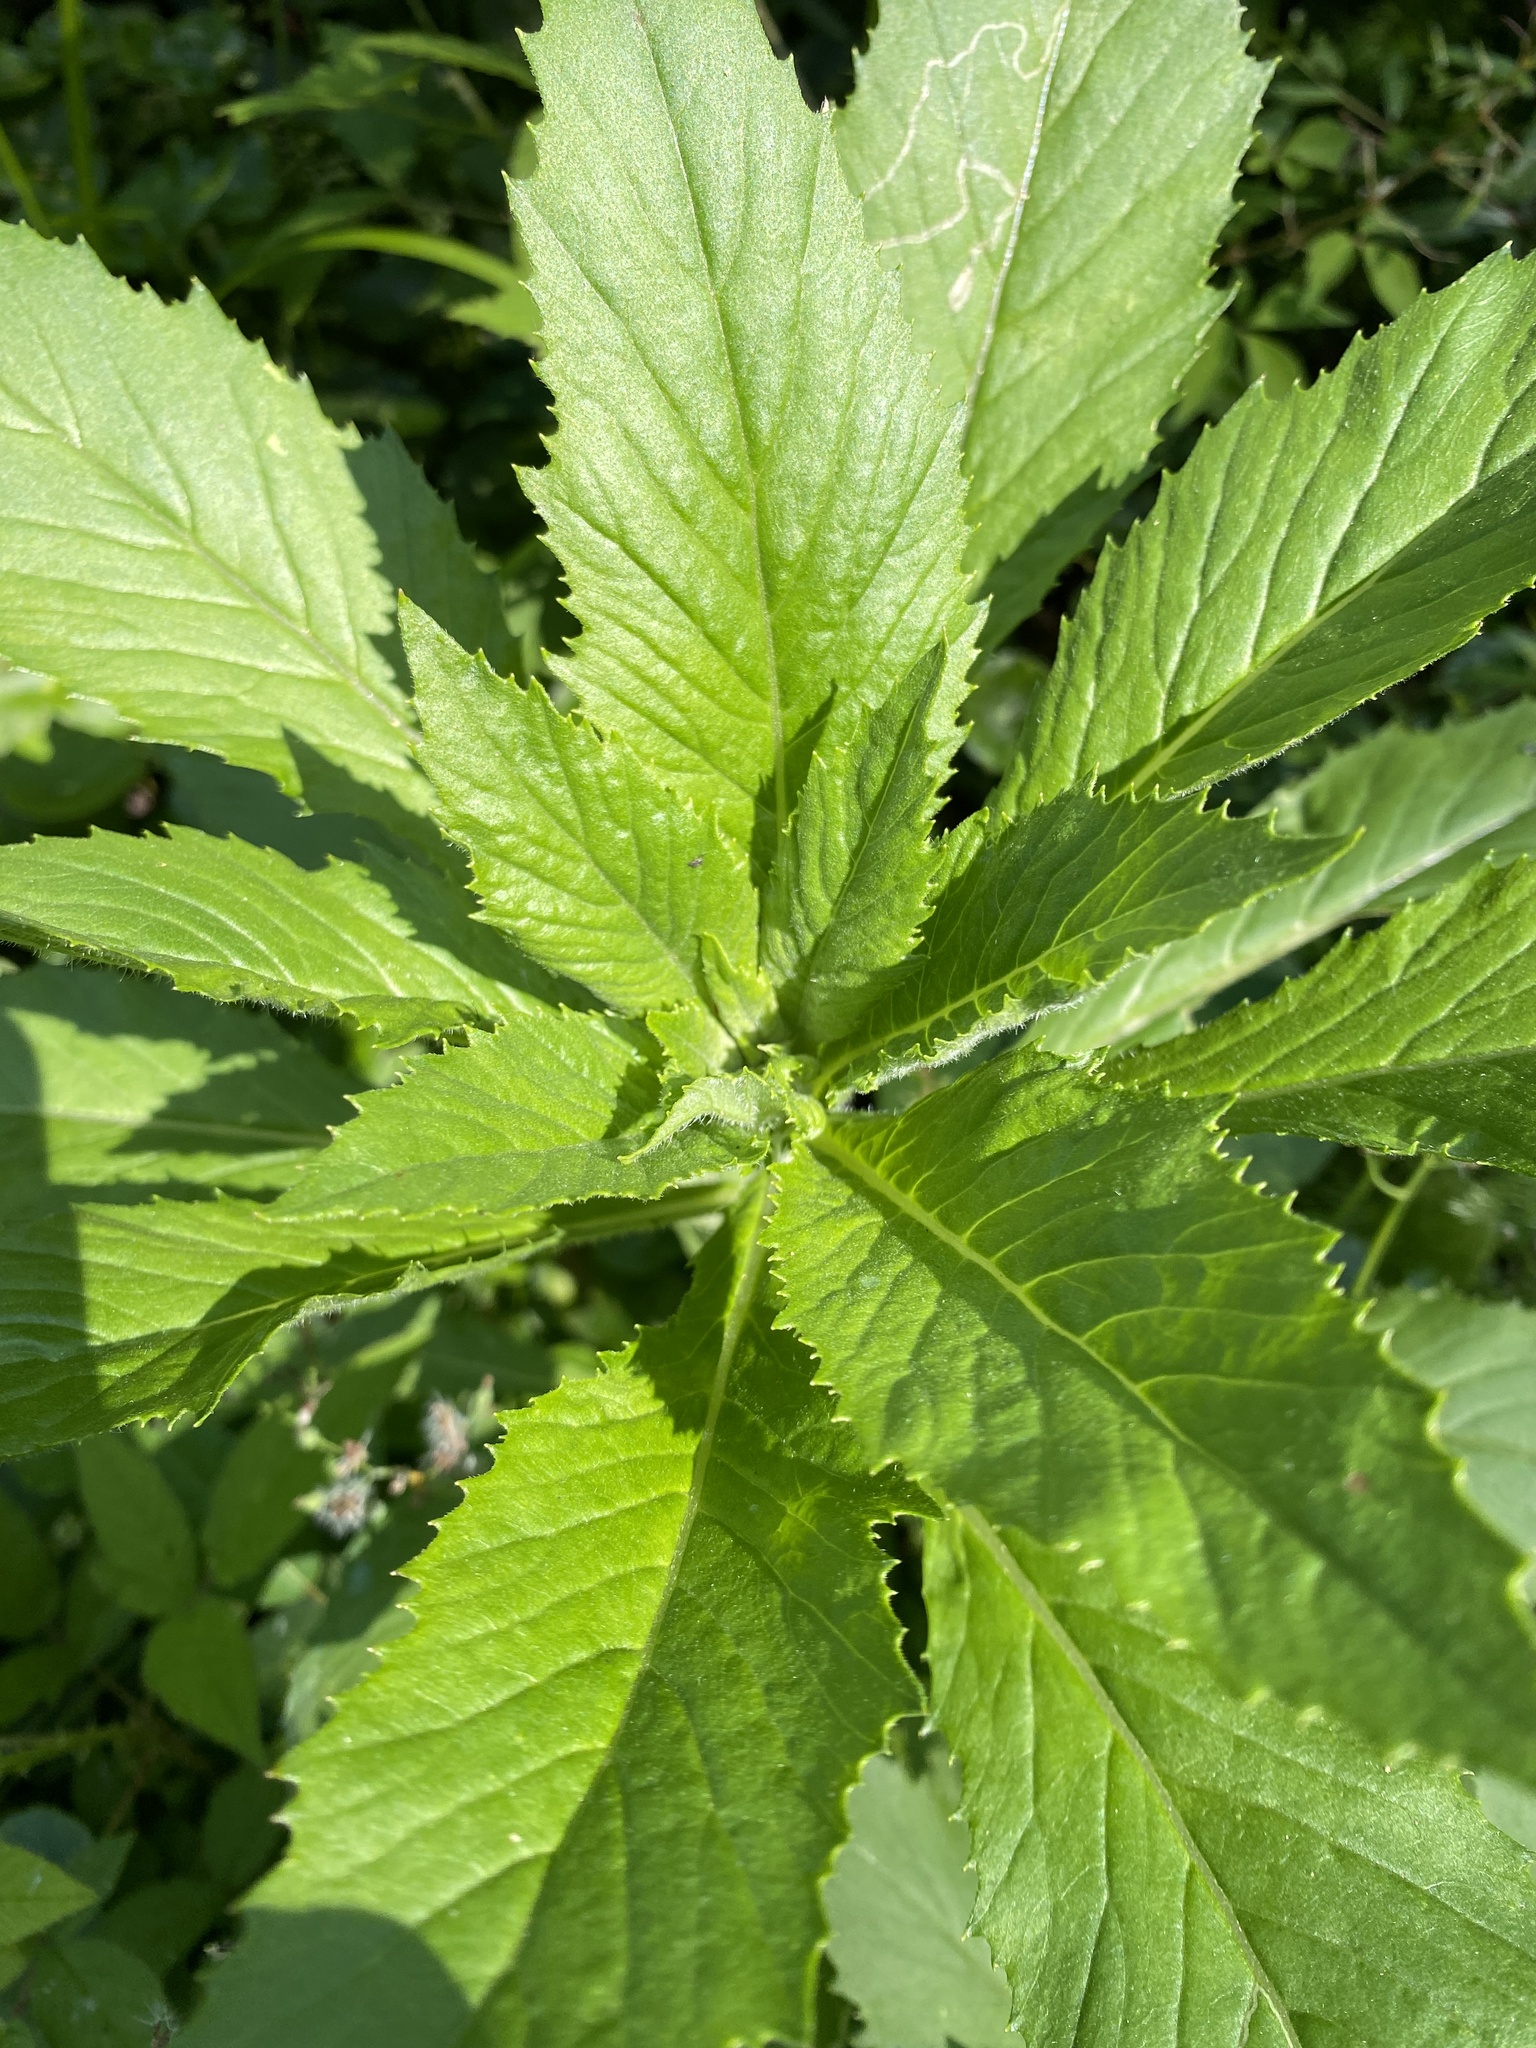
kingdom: Plantae
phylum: Tracheophyta
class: Magnoliopsida
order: Asterales
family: Asteraceae
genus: Erechtites
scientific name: Erechtites hieraciifolius
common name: American burnweed
